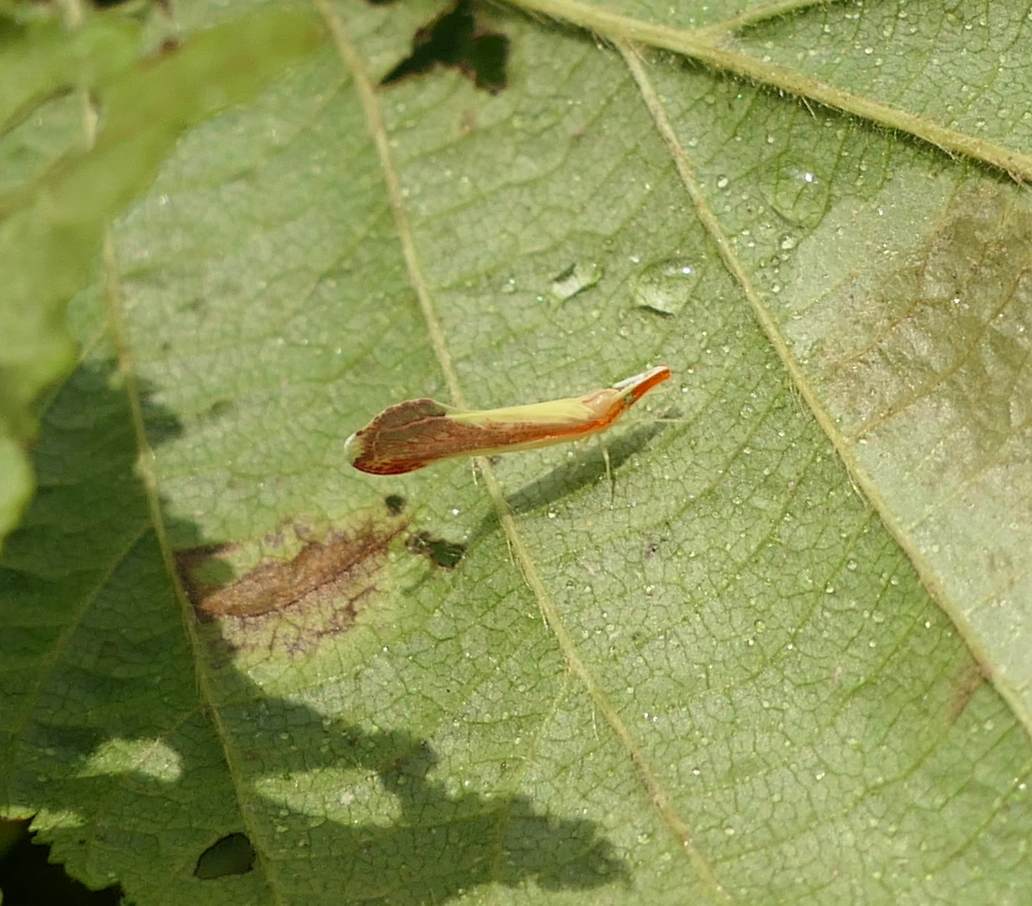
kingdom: Animalia
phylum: Arthropoda
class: Insecta
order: Hemiptera
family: Derbidae
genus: Shellenius
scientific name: Shellenius ballii
